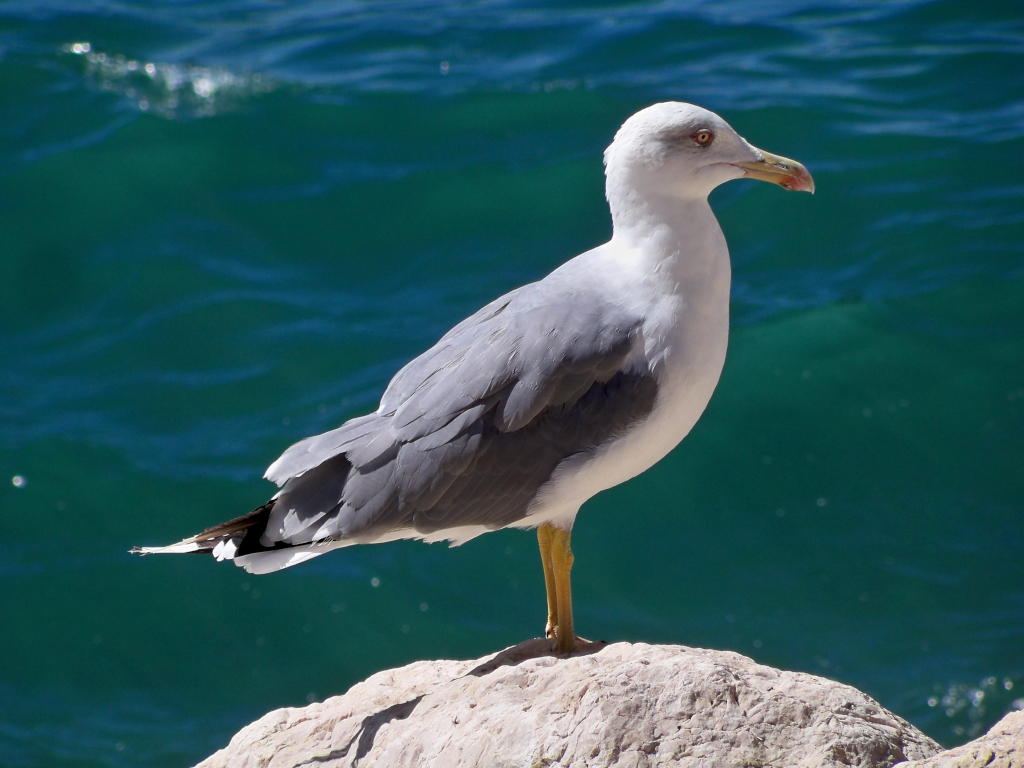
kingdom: Animalia
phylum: Chordata
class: Aves
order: Charadriiformes
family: Laridae
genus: Larus
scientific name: Larus michahellis
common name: Yellow-legged gull
